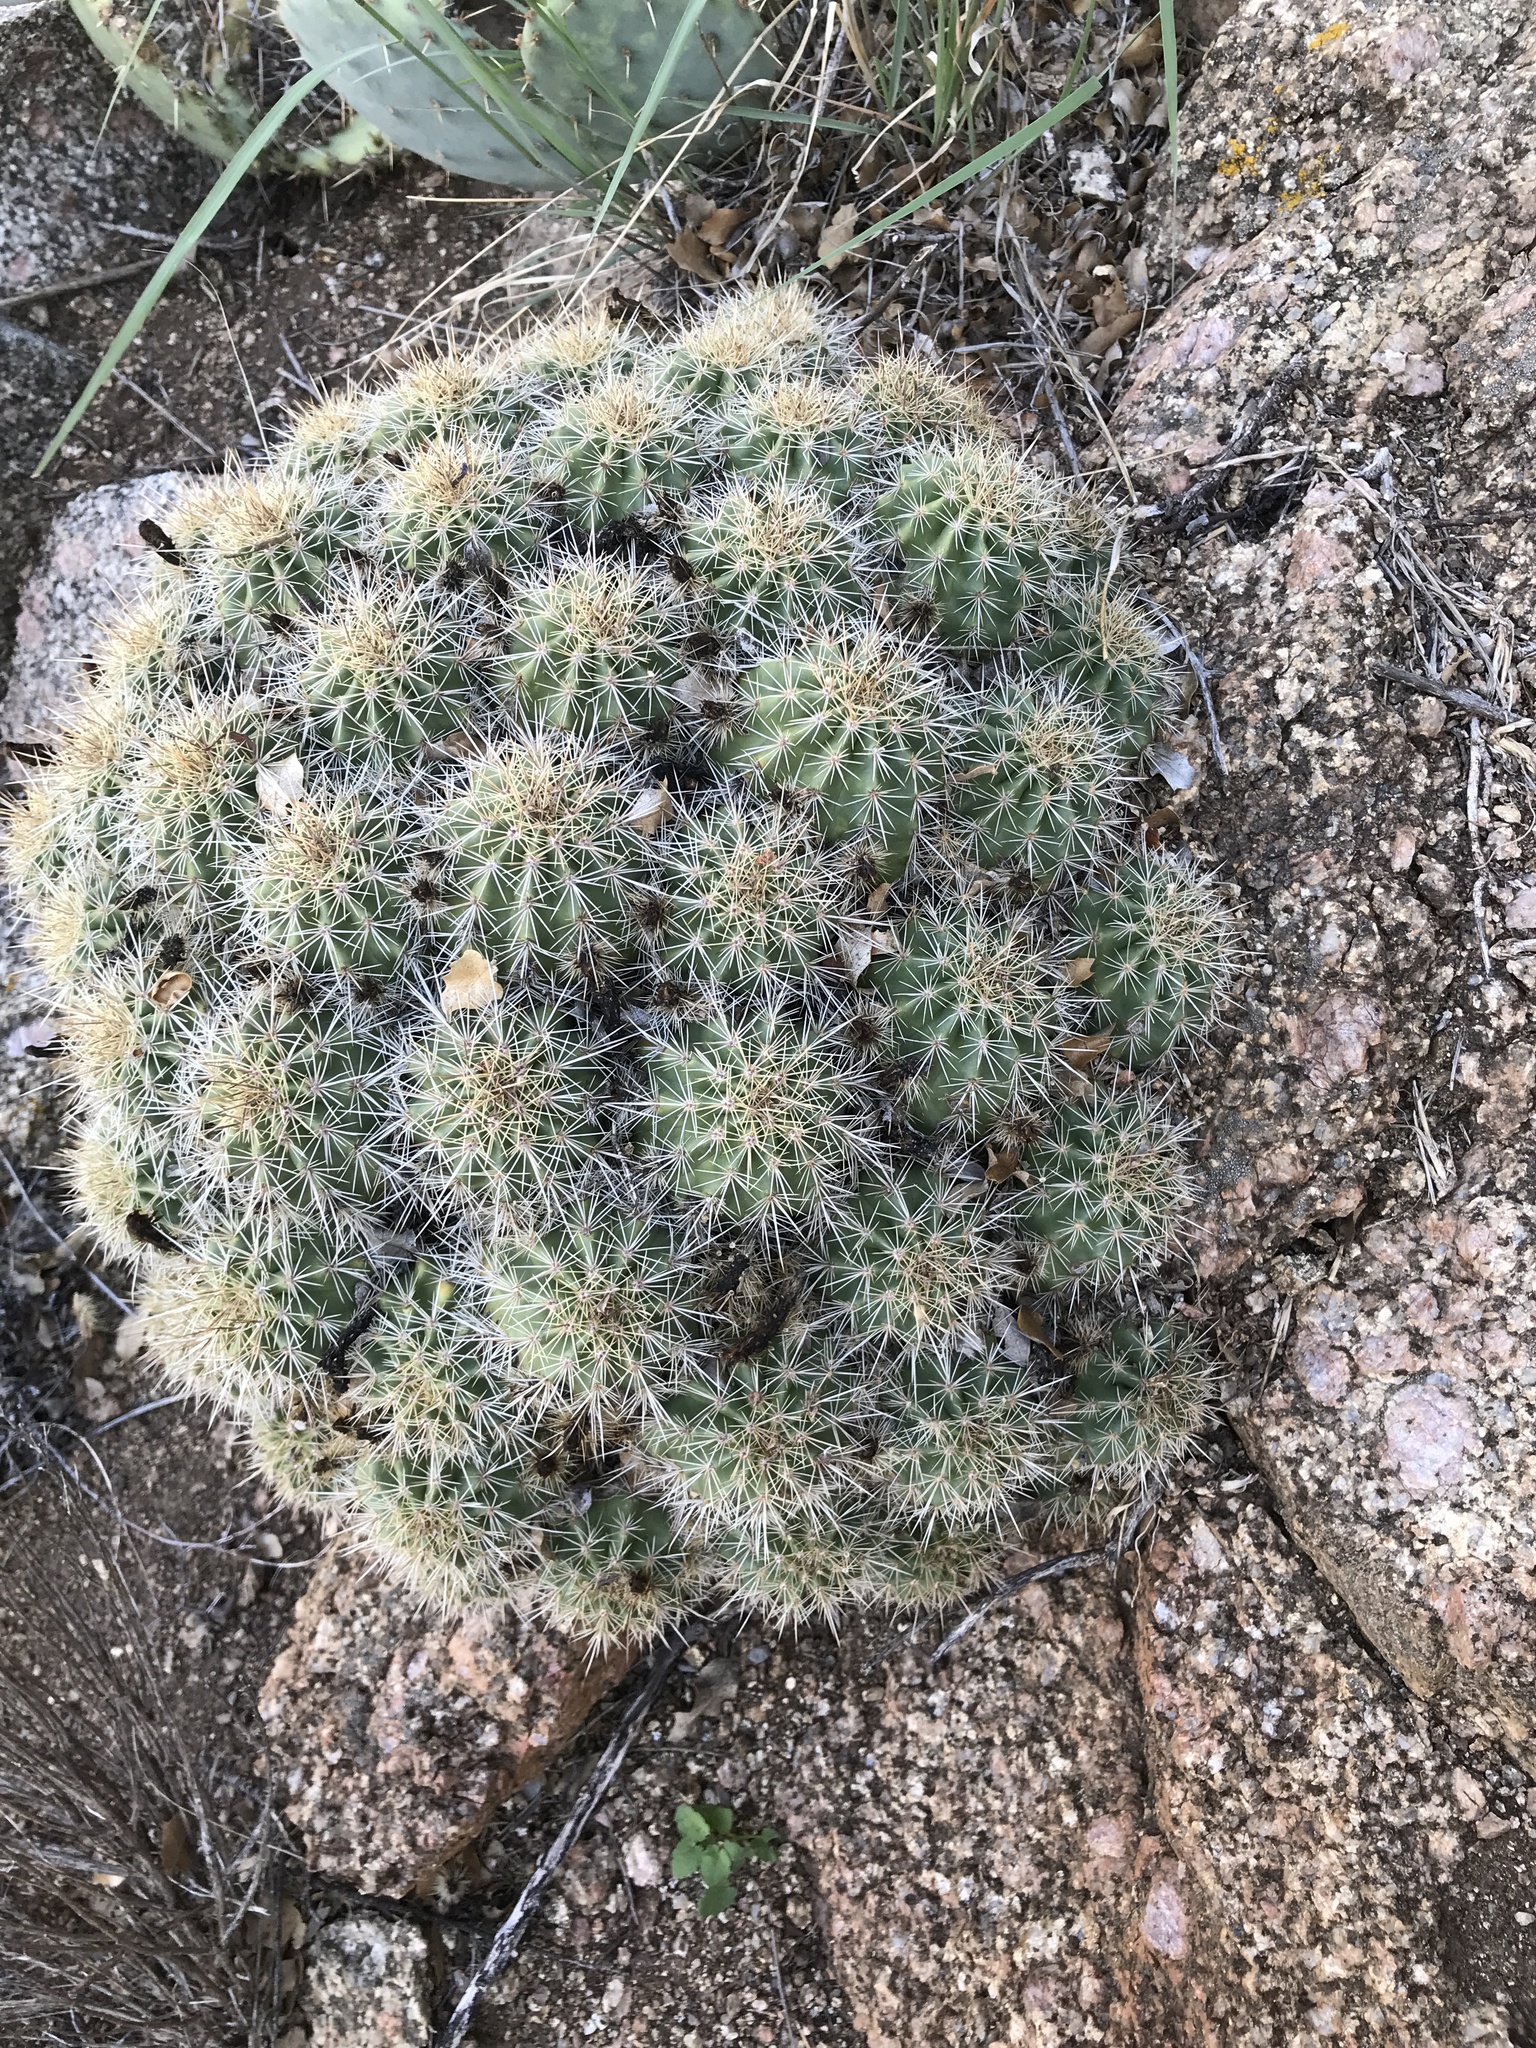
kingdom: Plantae
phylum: Tracheophyta
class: Magnoliopsida
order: Caryophyllales
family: Cactaceae
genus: Echinocereus
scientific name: Echinocereus coccineus
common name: Scarlet hedgehog cactus
